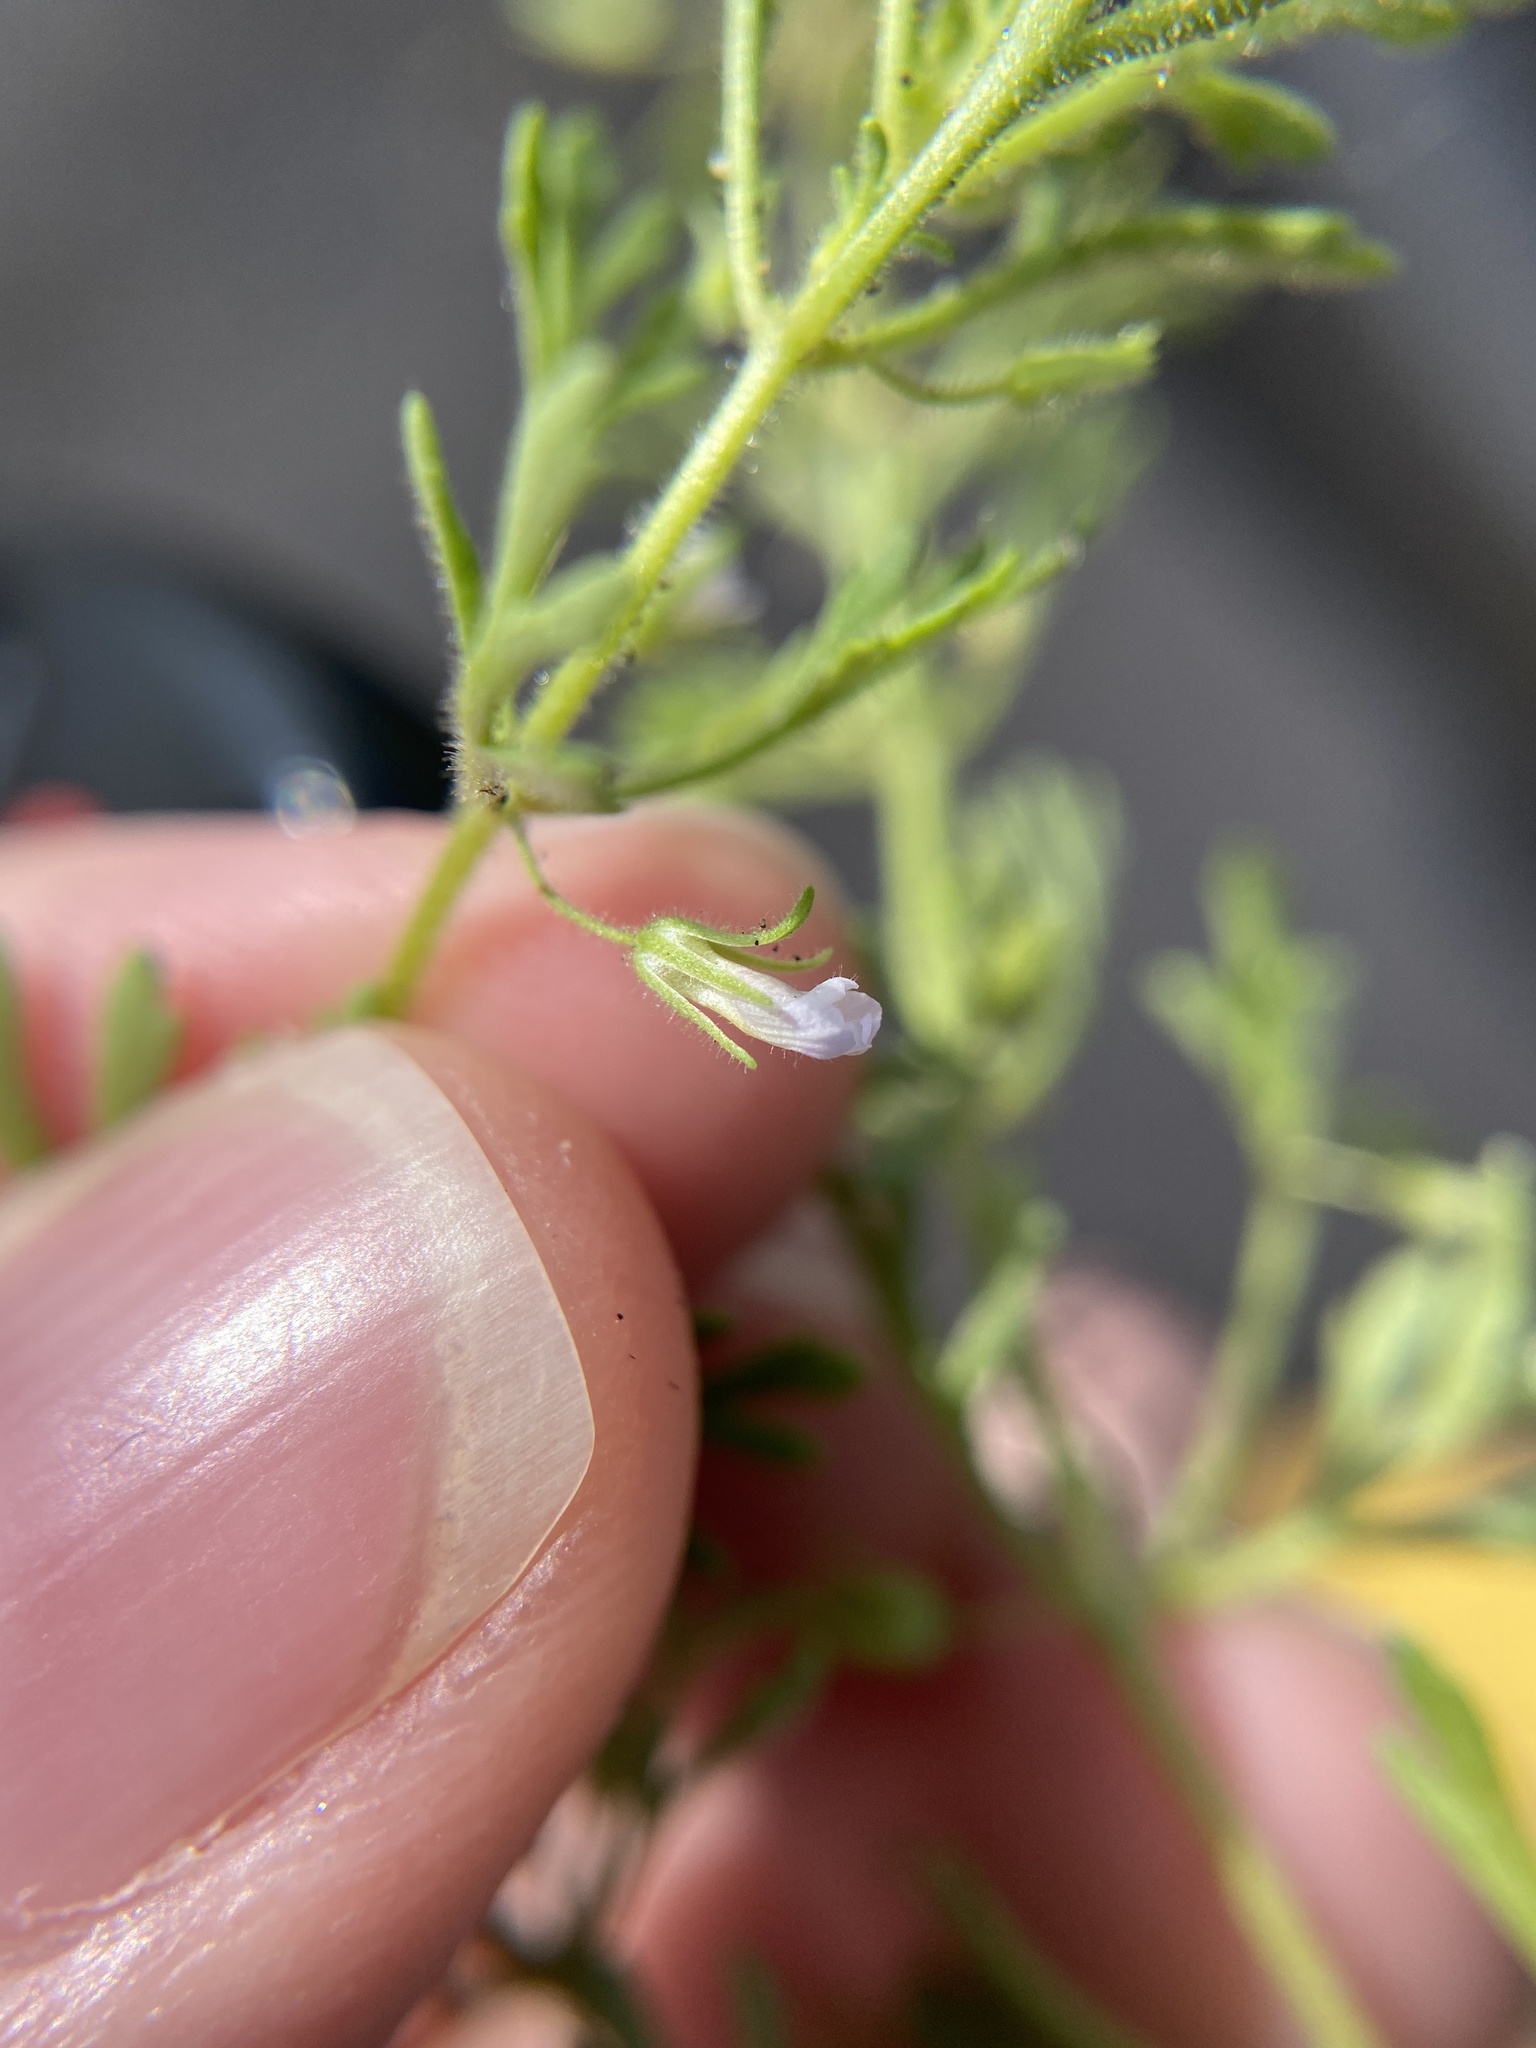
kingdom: Plantae
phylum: Tracheophyta
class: Magnoliopsida
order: Lamiales
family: Plantaginaceae
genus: Leucospora
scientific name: Leucospora multifida
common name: Narrow-leaf paleseed
